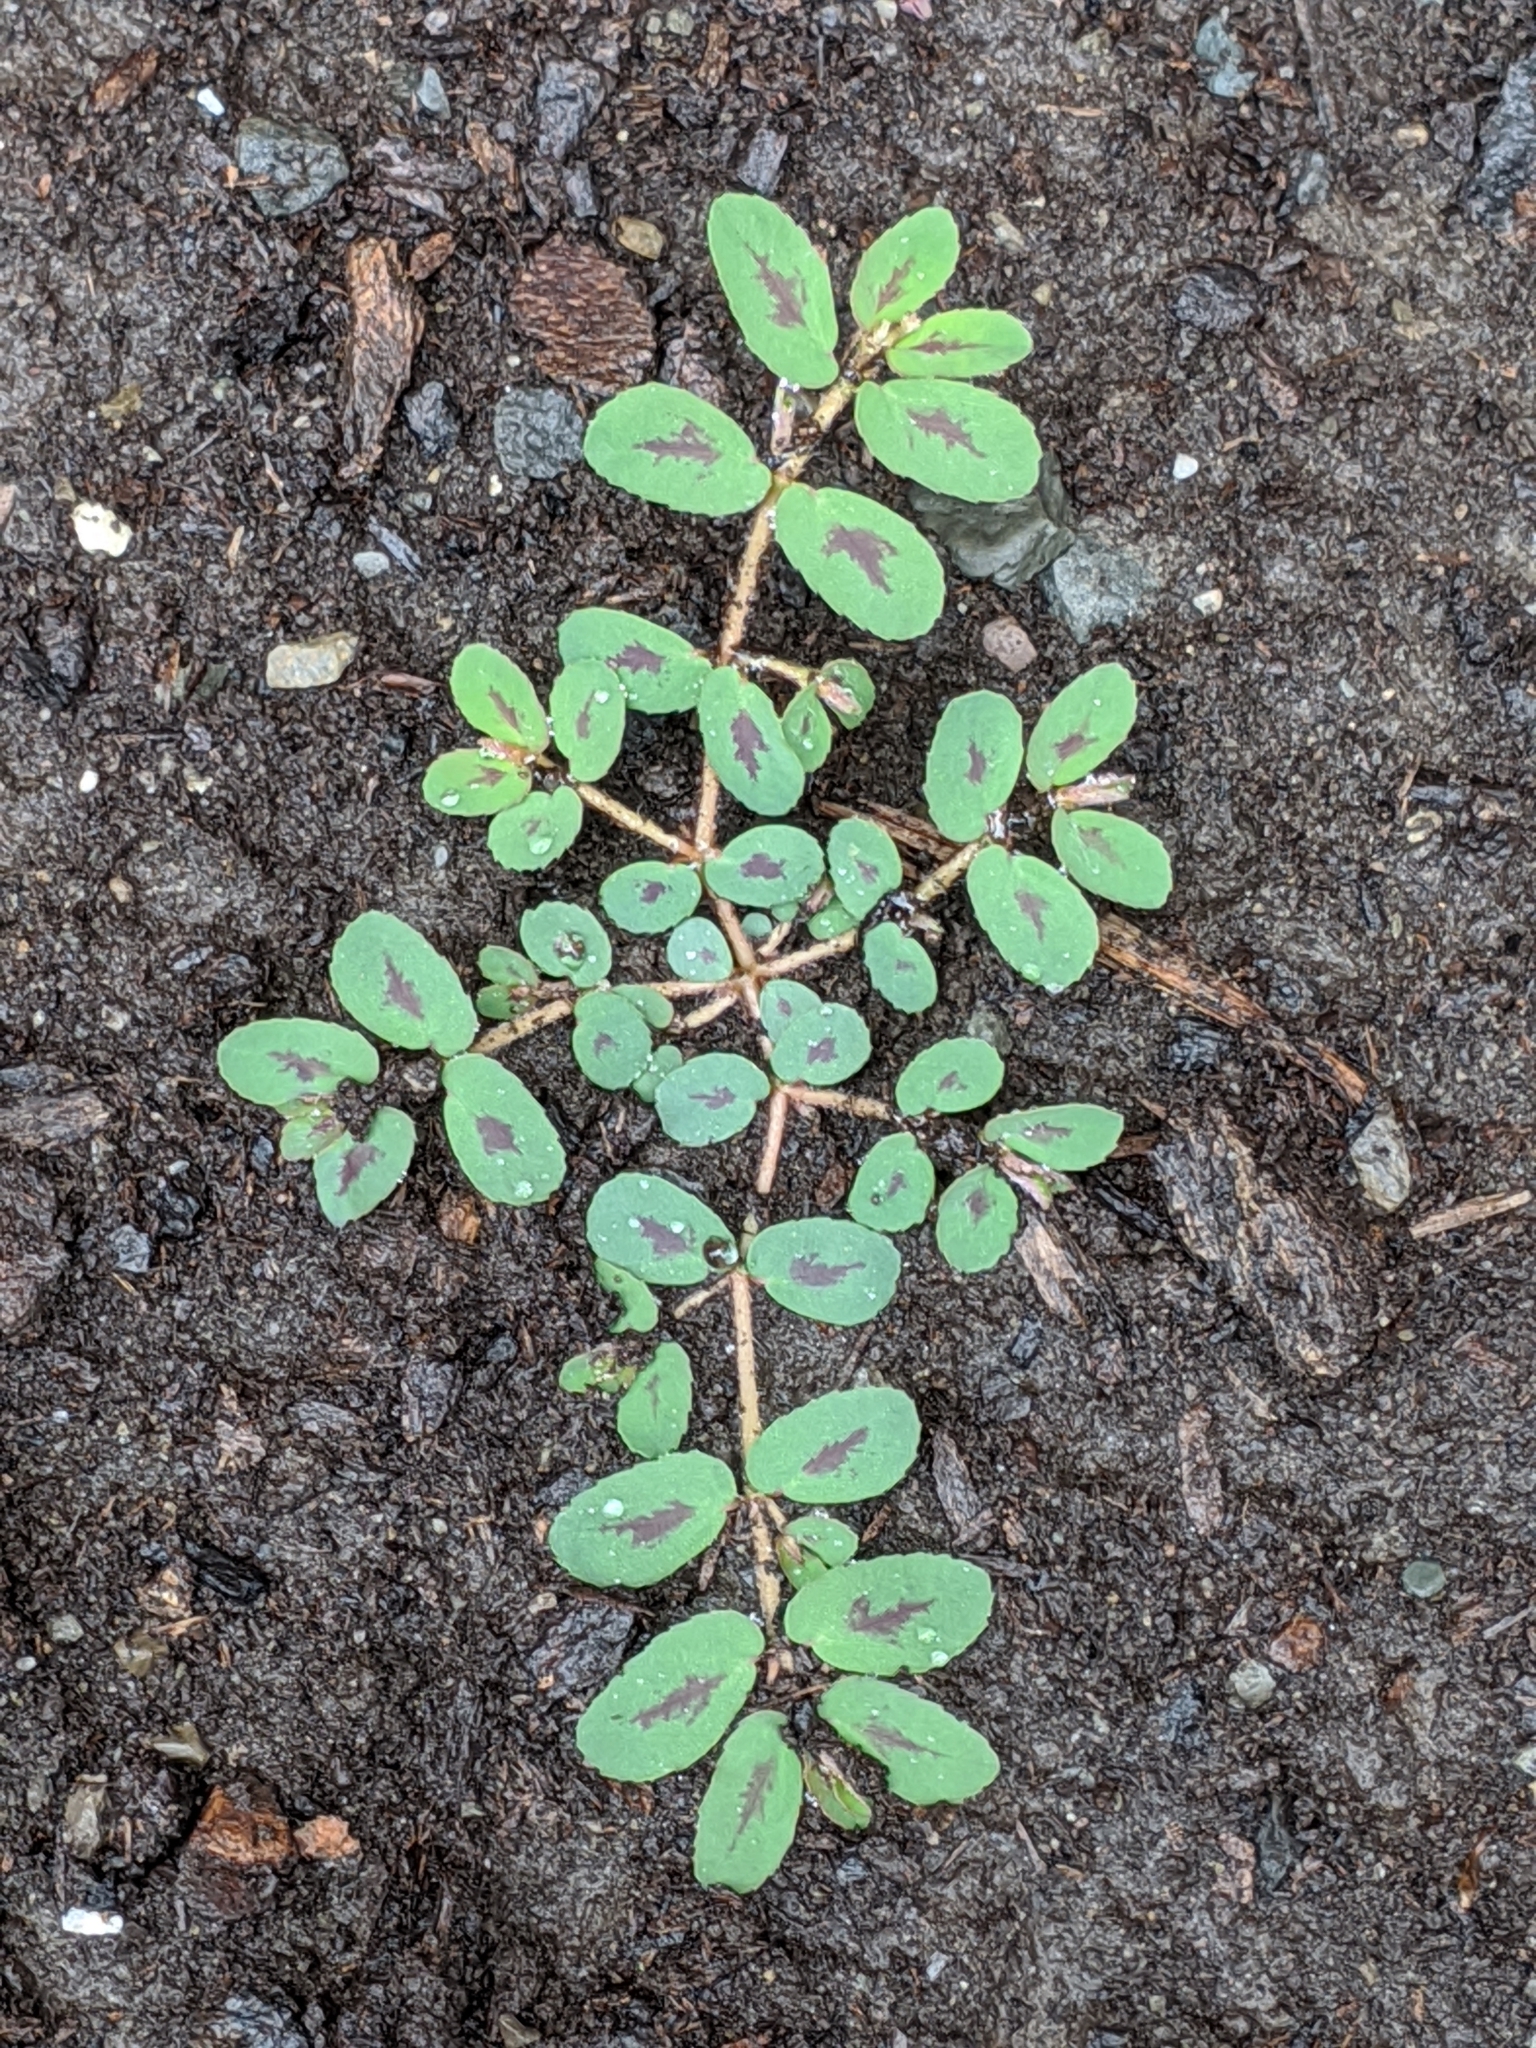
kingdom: Plantae
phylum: Tracheophyta
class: Magnoliopsida
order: Malpighiales
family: Euphorbiaceae
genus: Euphorbia
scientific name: Euphorbia maculata
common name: Spotted spurge
